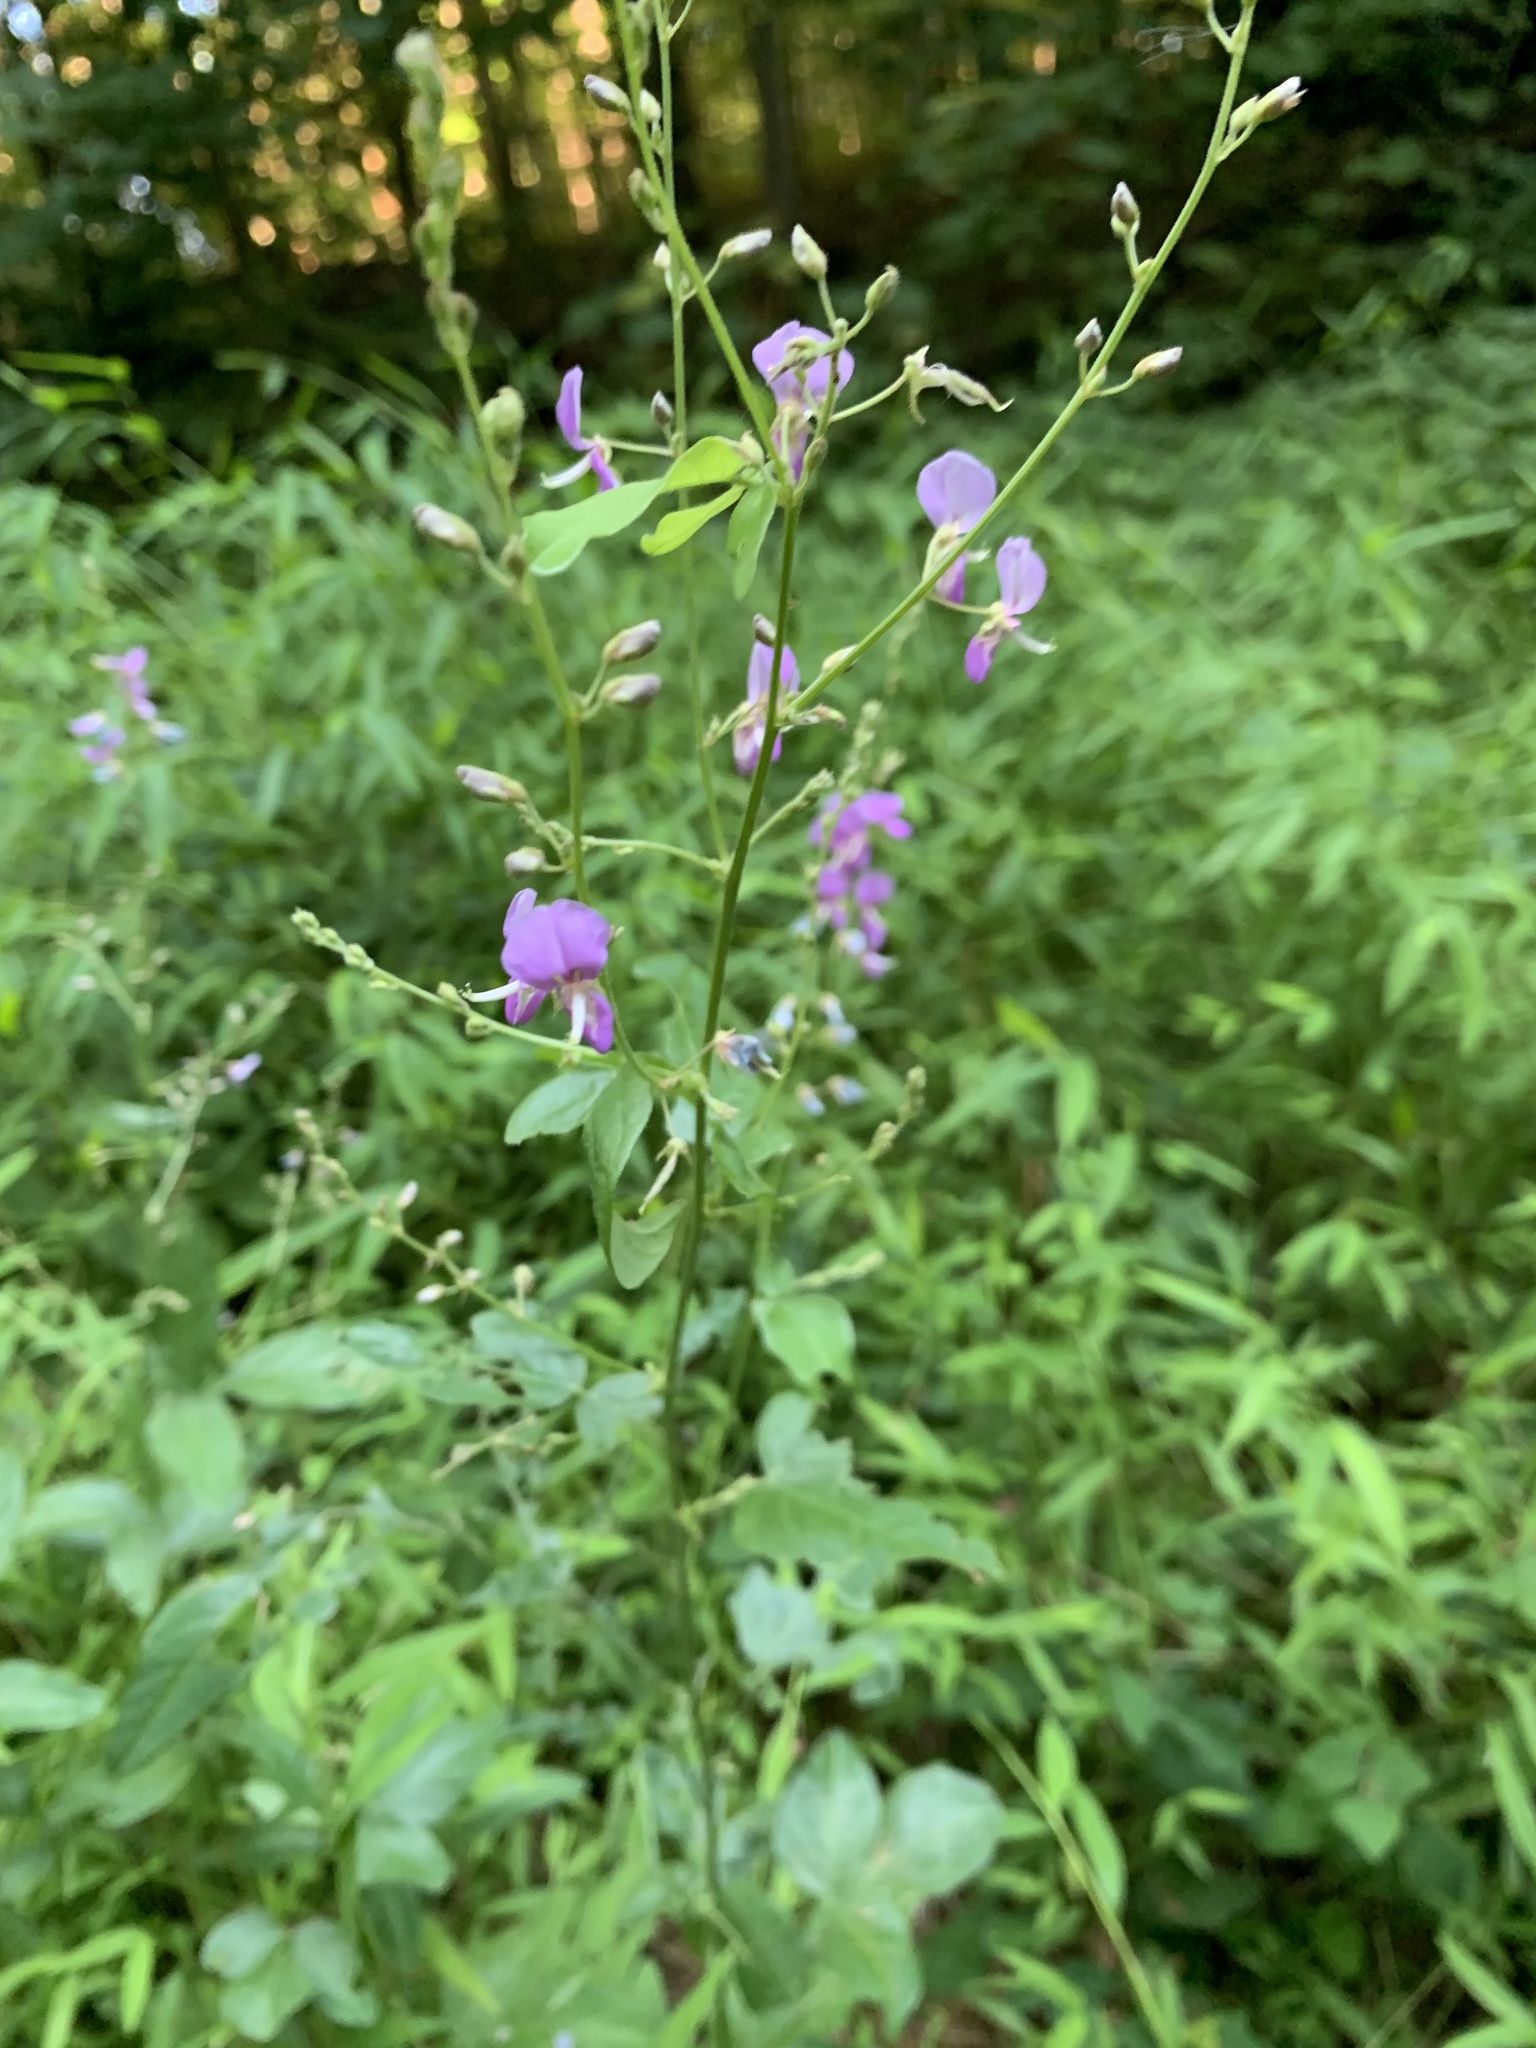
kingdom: Plantae
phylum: Tracheophyta
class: Magnoliopsida
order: Fabales
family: Fabaceae
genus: Desmodium
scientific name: Desmodium glabellum
